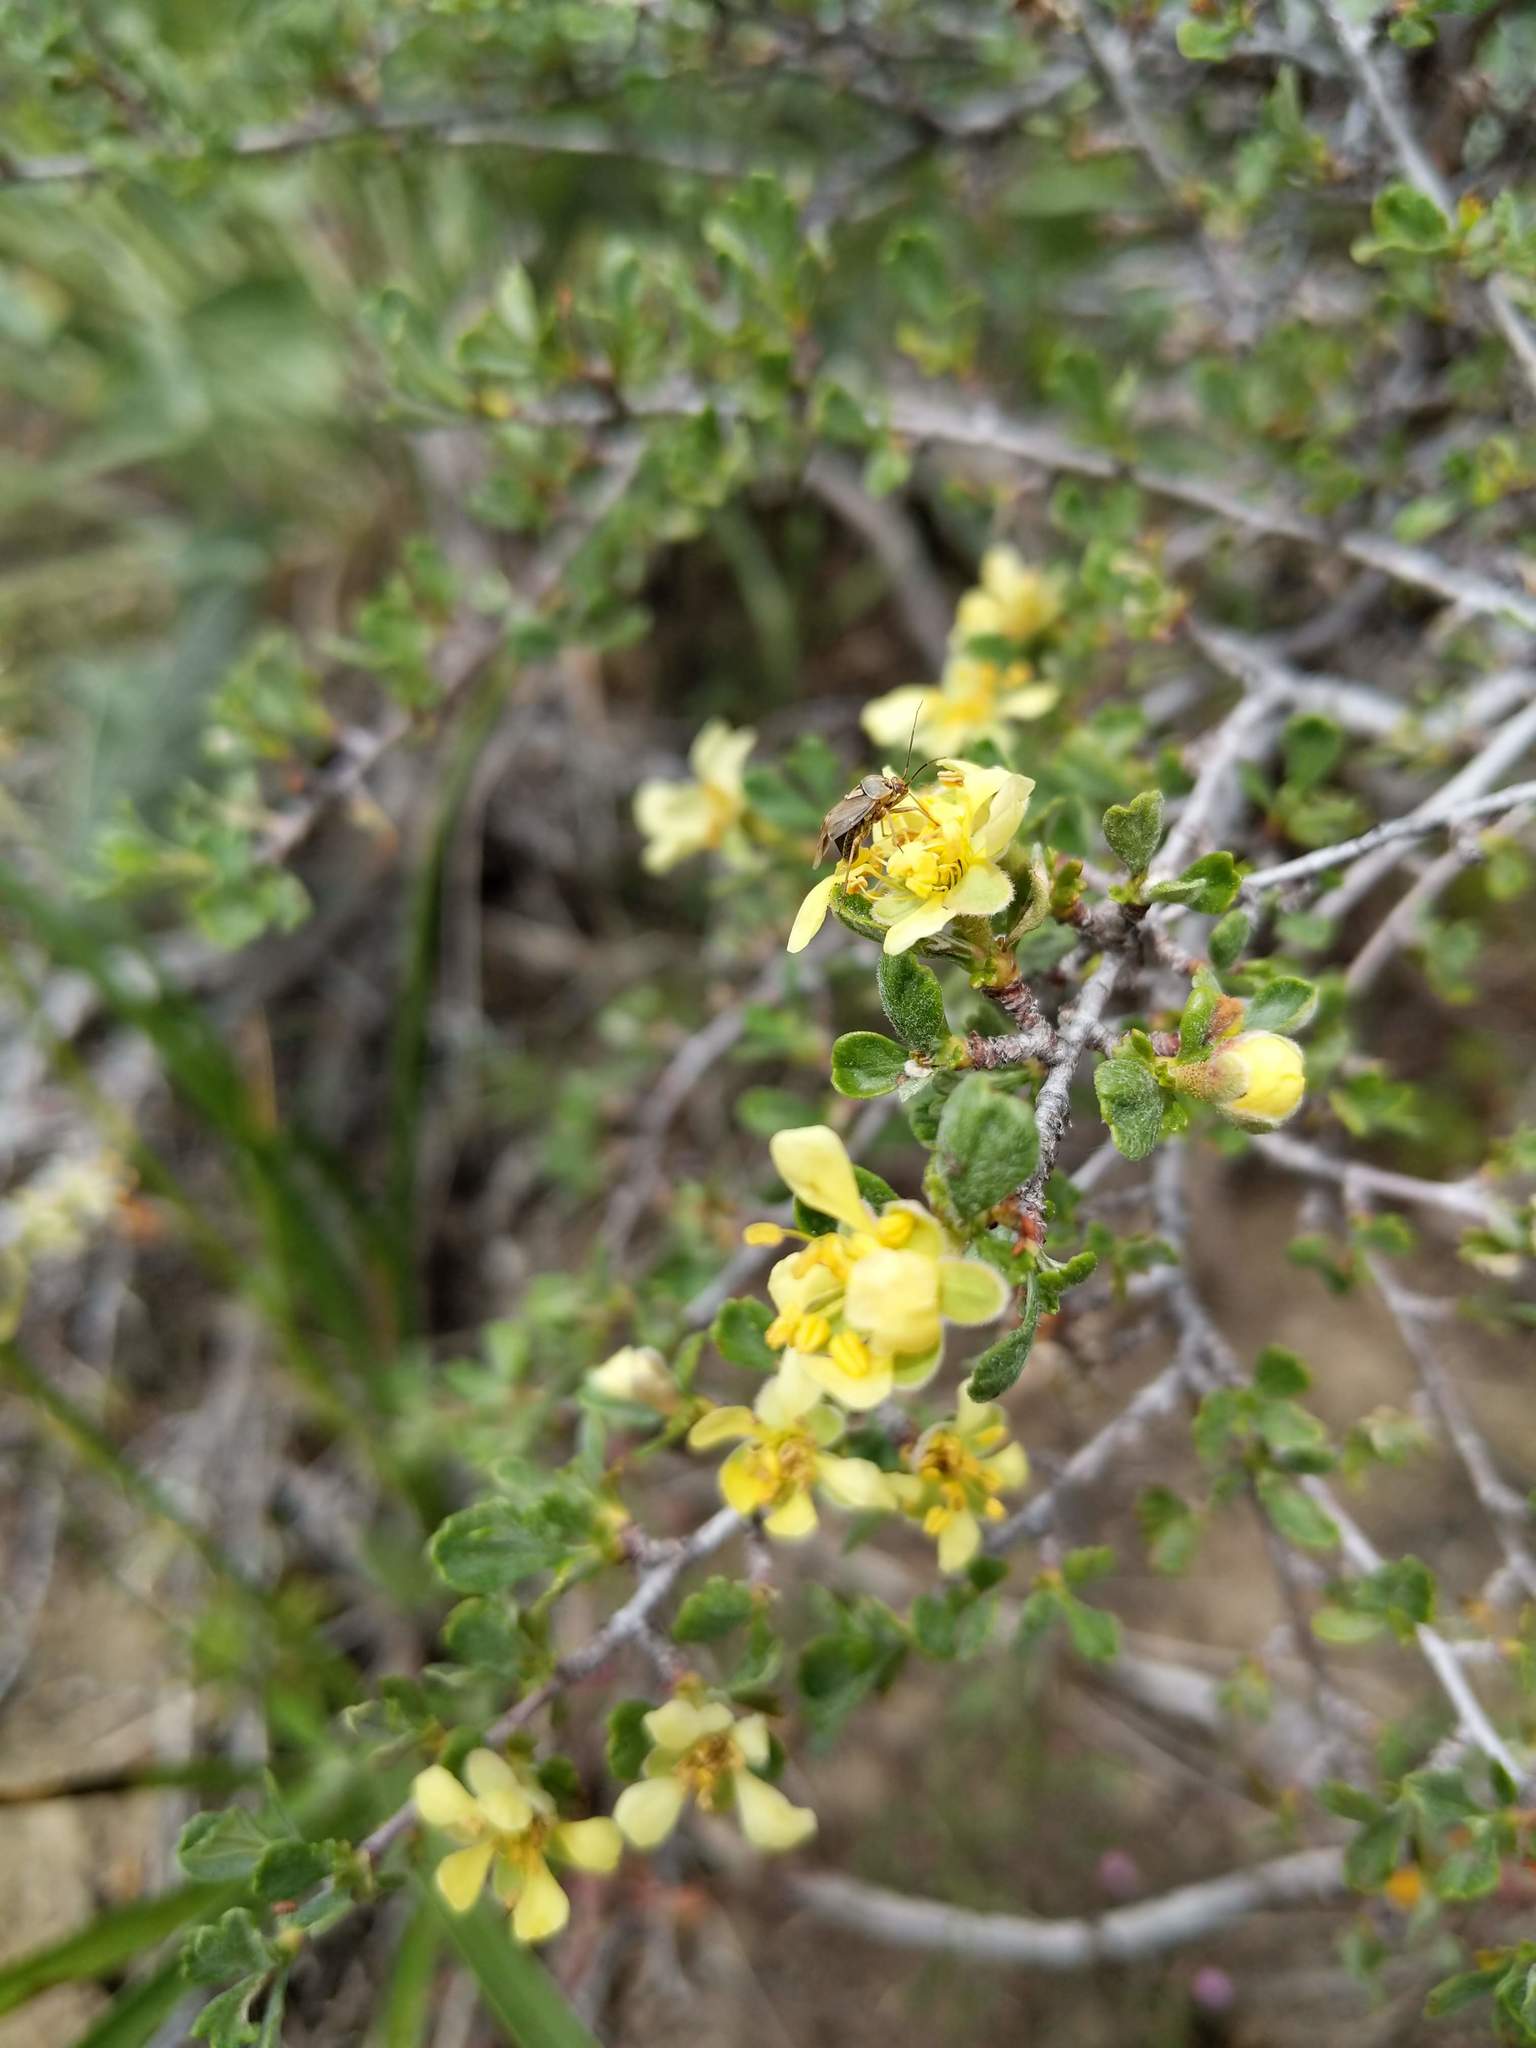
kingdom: Plantae
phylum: Tracheophyta
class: Magnoliopsida
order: Rosales
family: Rosaceae
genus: Purshia
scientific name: Purshia tridentata
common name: Antelope bitterbrush
